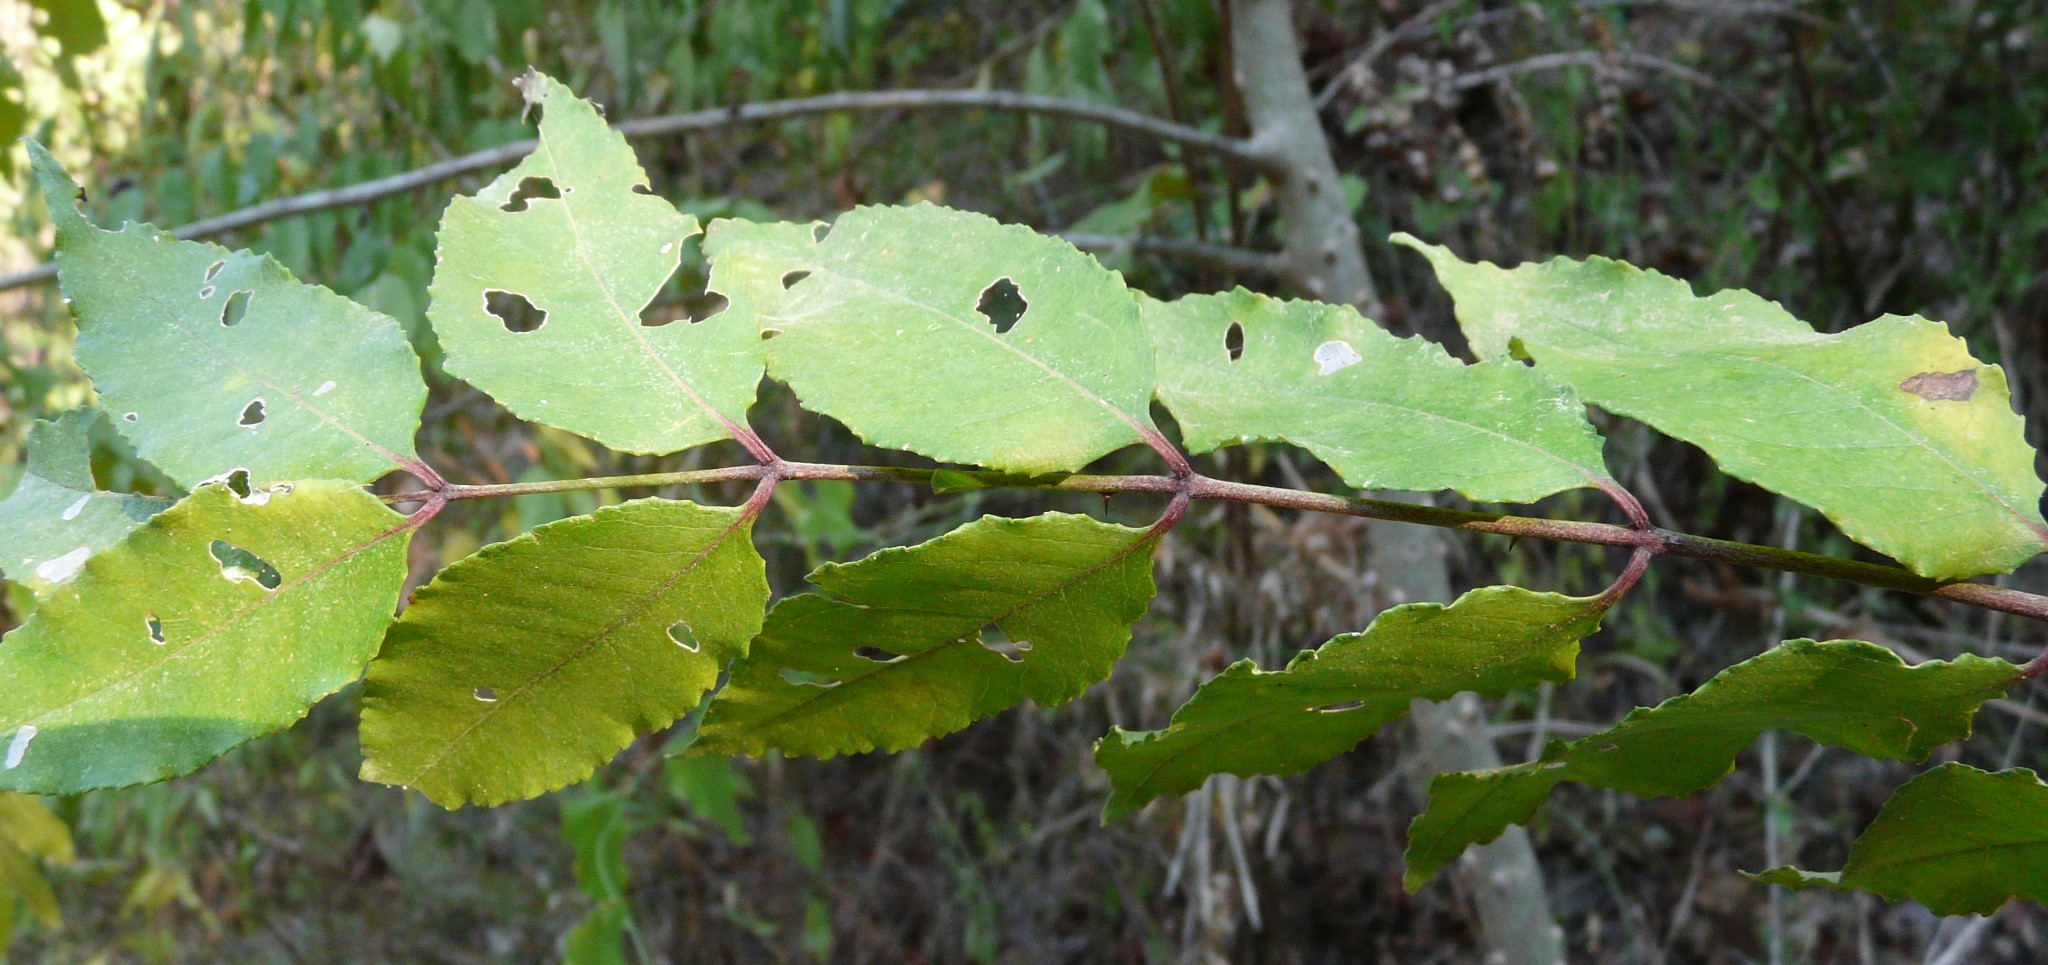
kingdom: Plantae
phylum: Tracheophyta
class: Magnoliopsida
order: Sapindales
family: Rutaceae
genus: Zanthoxylum
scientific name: Zanthoxylum clava-herculis
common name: Hercules'-club
